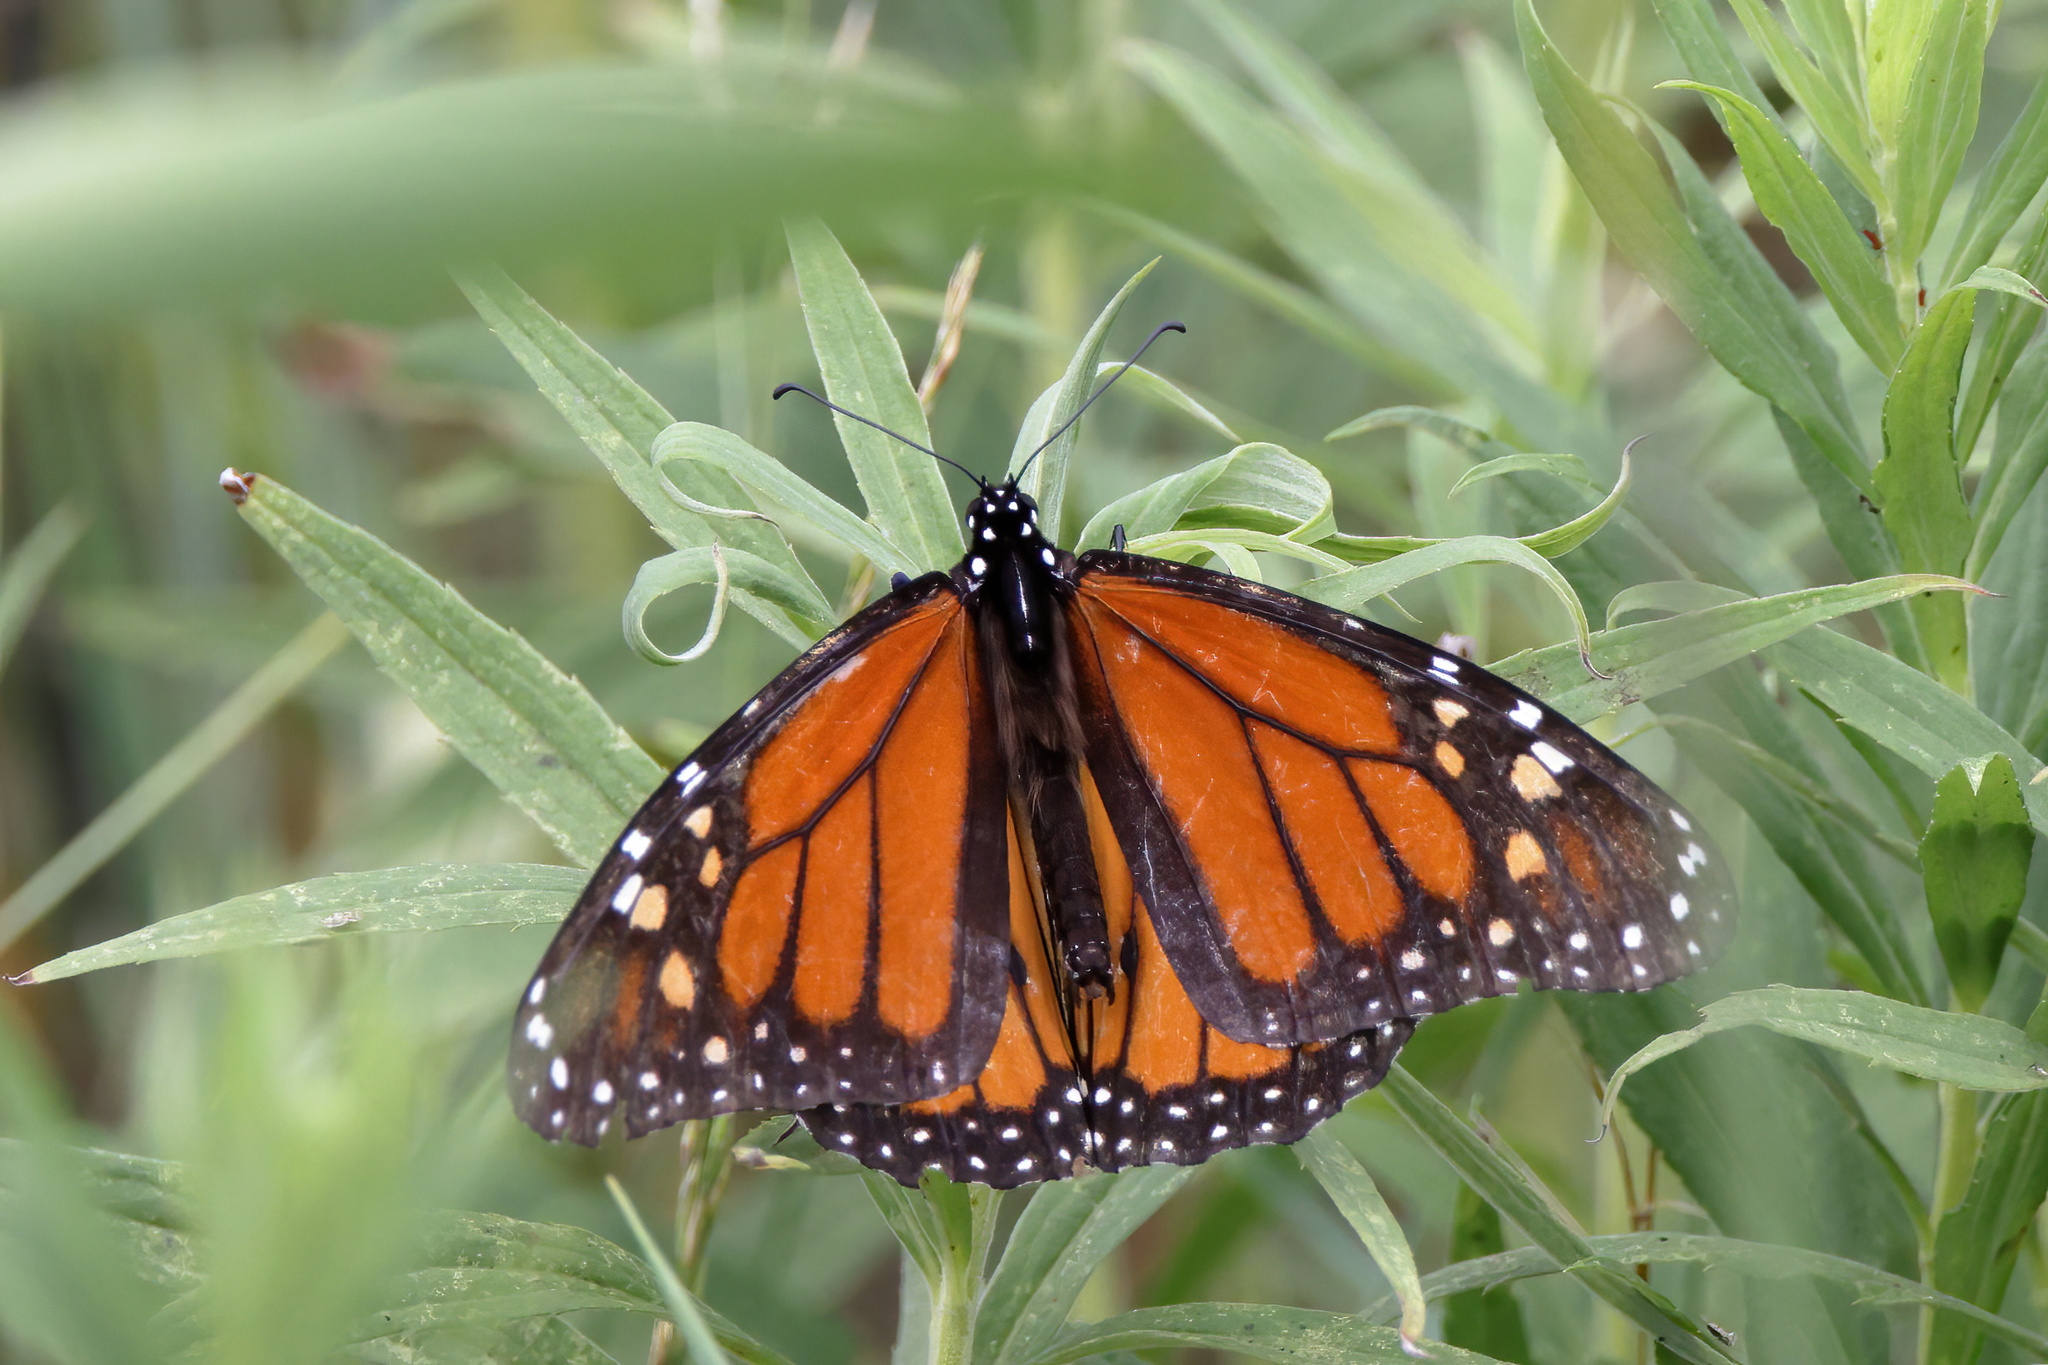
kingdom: Animalia
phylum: Arthropoda
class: Insecta
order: Lepidoptera
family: Nymphalidae
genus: Danaus
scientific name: Danaus plexippus
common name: Monarch
